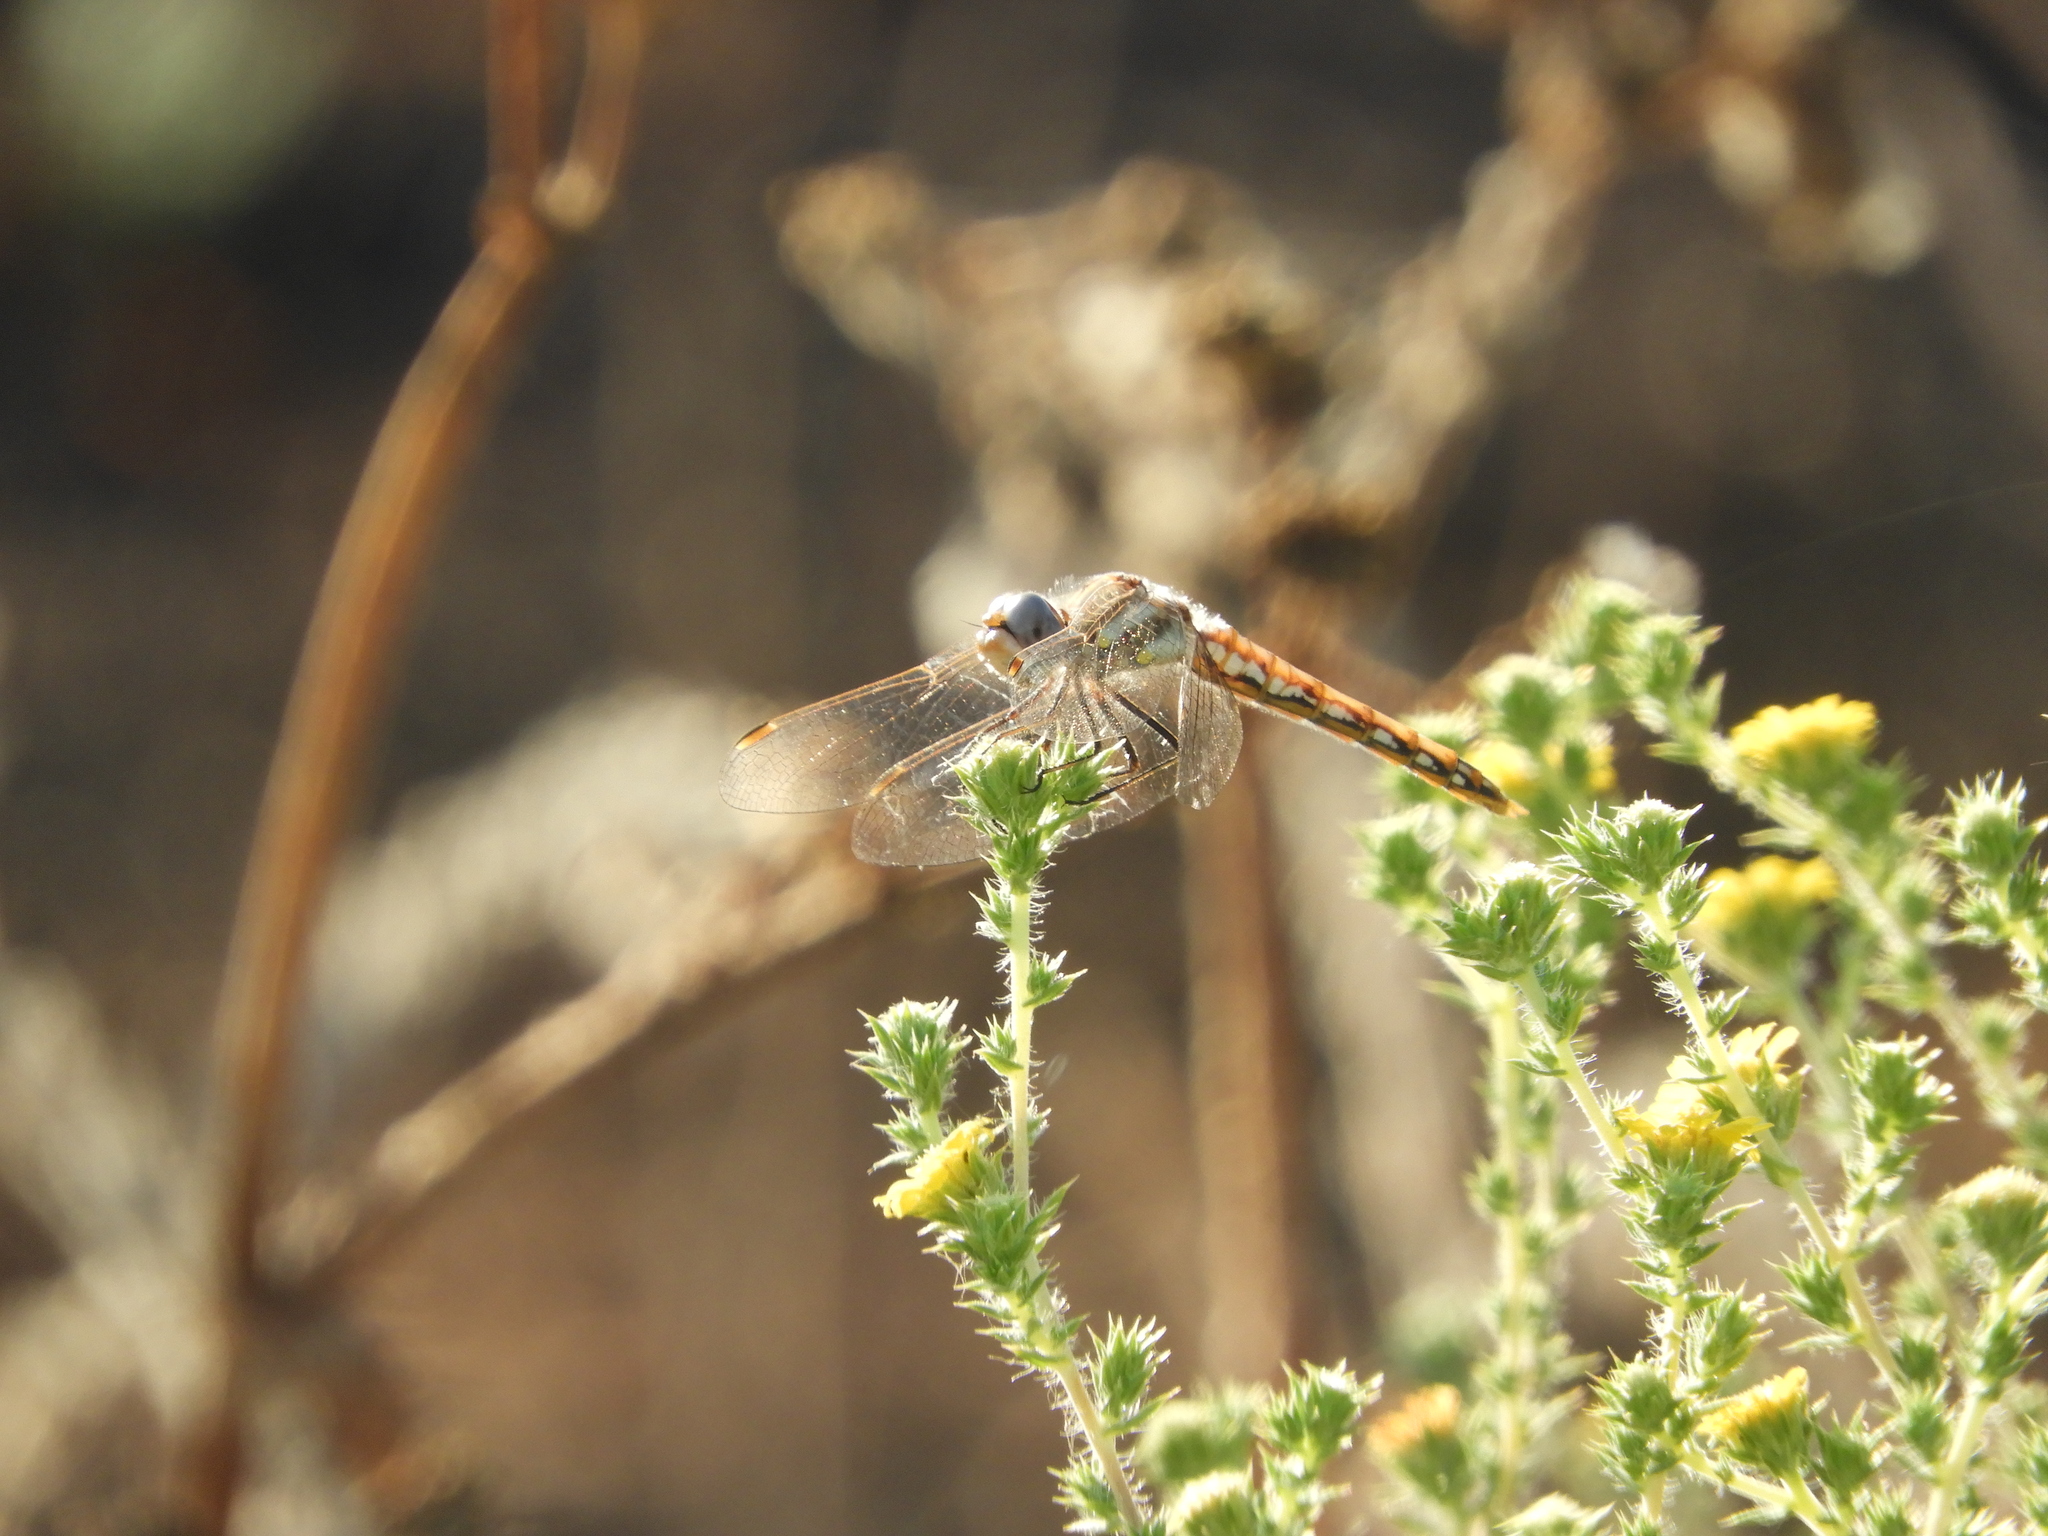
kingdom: Animalia
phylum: Arthropoda
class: Insecta
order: Odonata
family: Libellulidae
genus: Sympetrum
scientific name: Sympetrum corruptum
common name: Variegated meadowhawk
